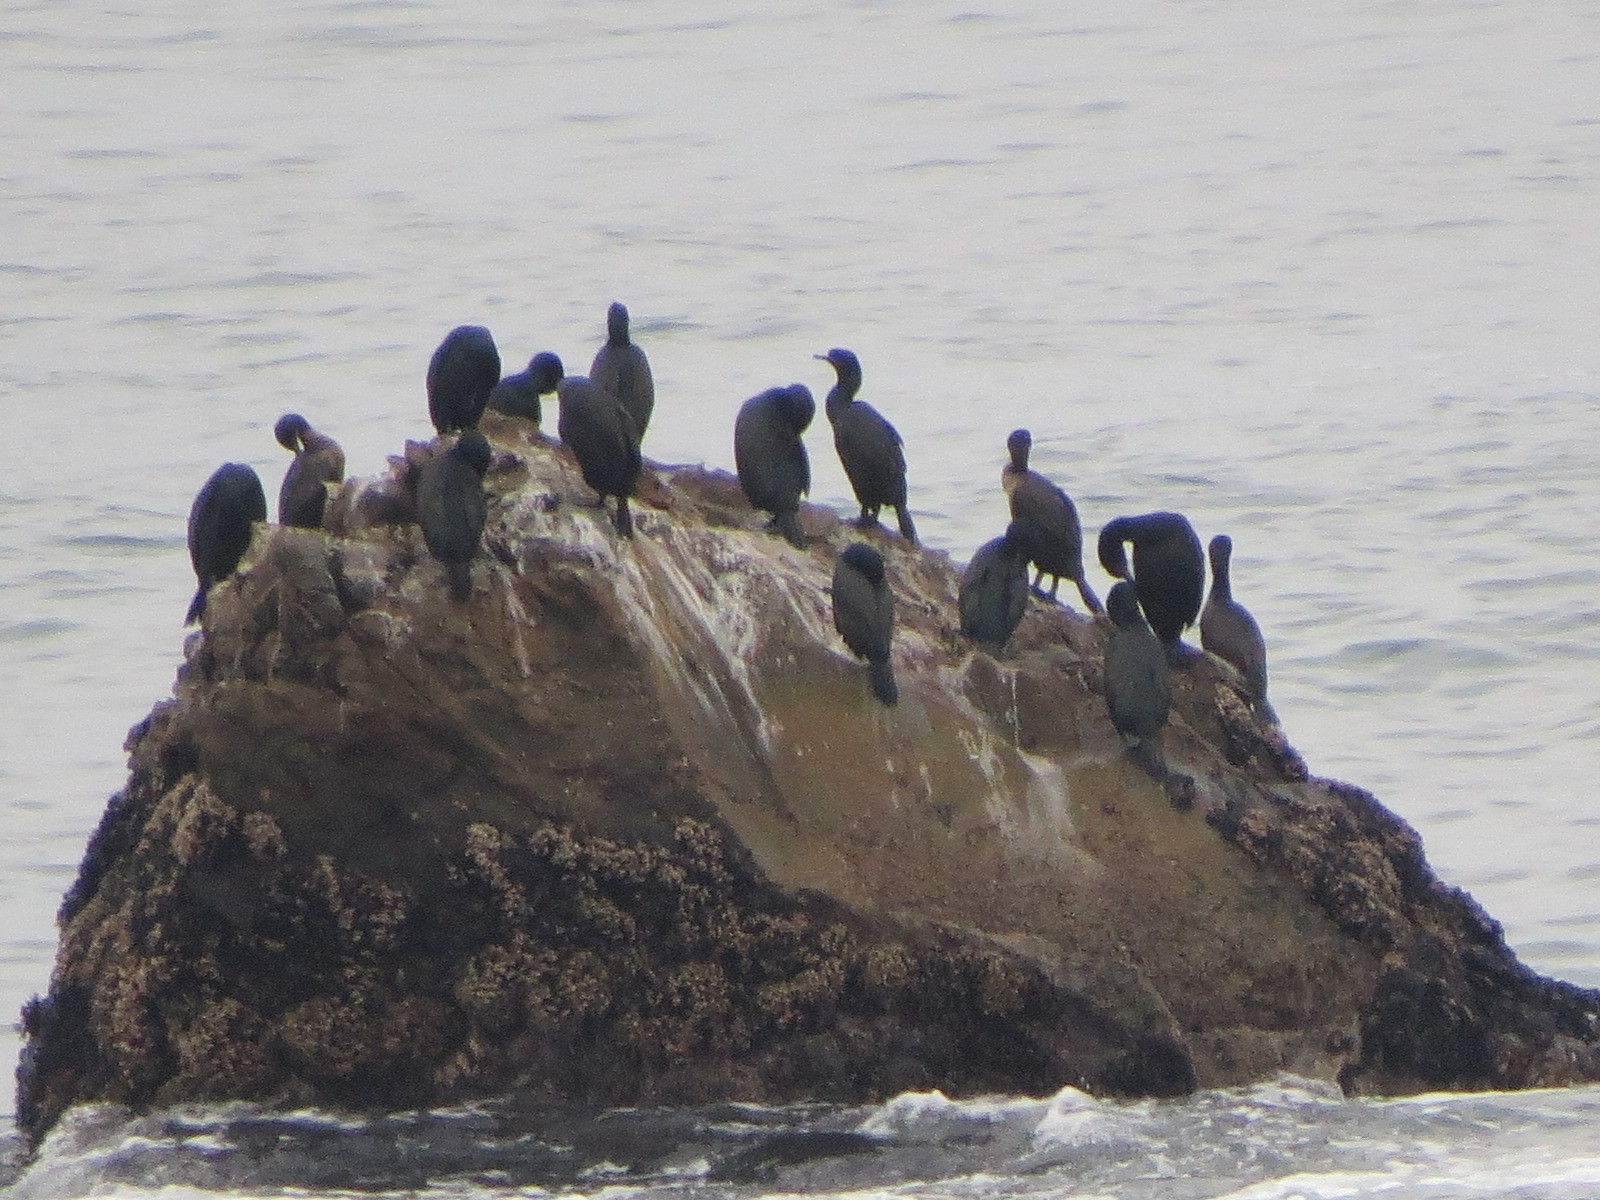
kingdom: Animalia
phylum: Chordata
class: Aves
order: Suliformes
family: Phalacrocoracidae
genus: Urile
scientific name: Urile penicillatus
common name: Brandt's cormorant
